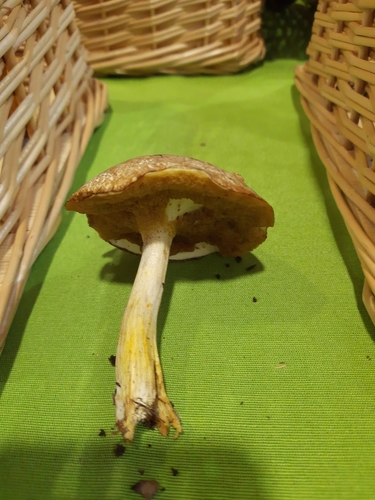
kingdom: Fungi
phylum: Basidiomycota
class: Agaricomycetes
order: Boletales
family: Suillaceae
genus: Suillus
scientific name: Suillus placidus
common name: Slippery white bolete
